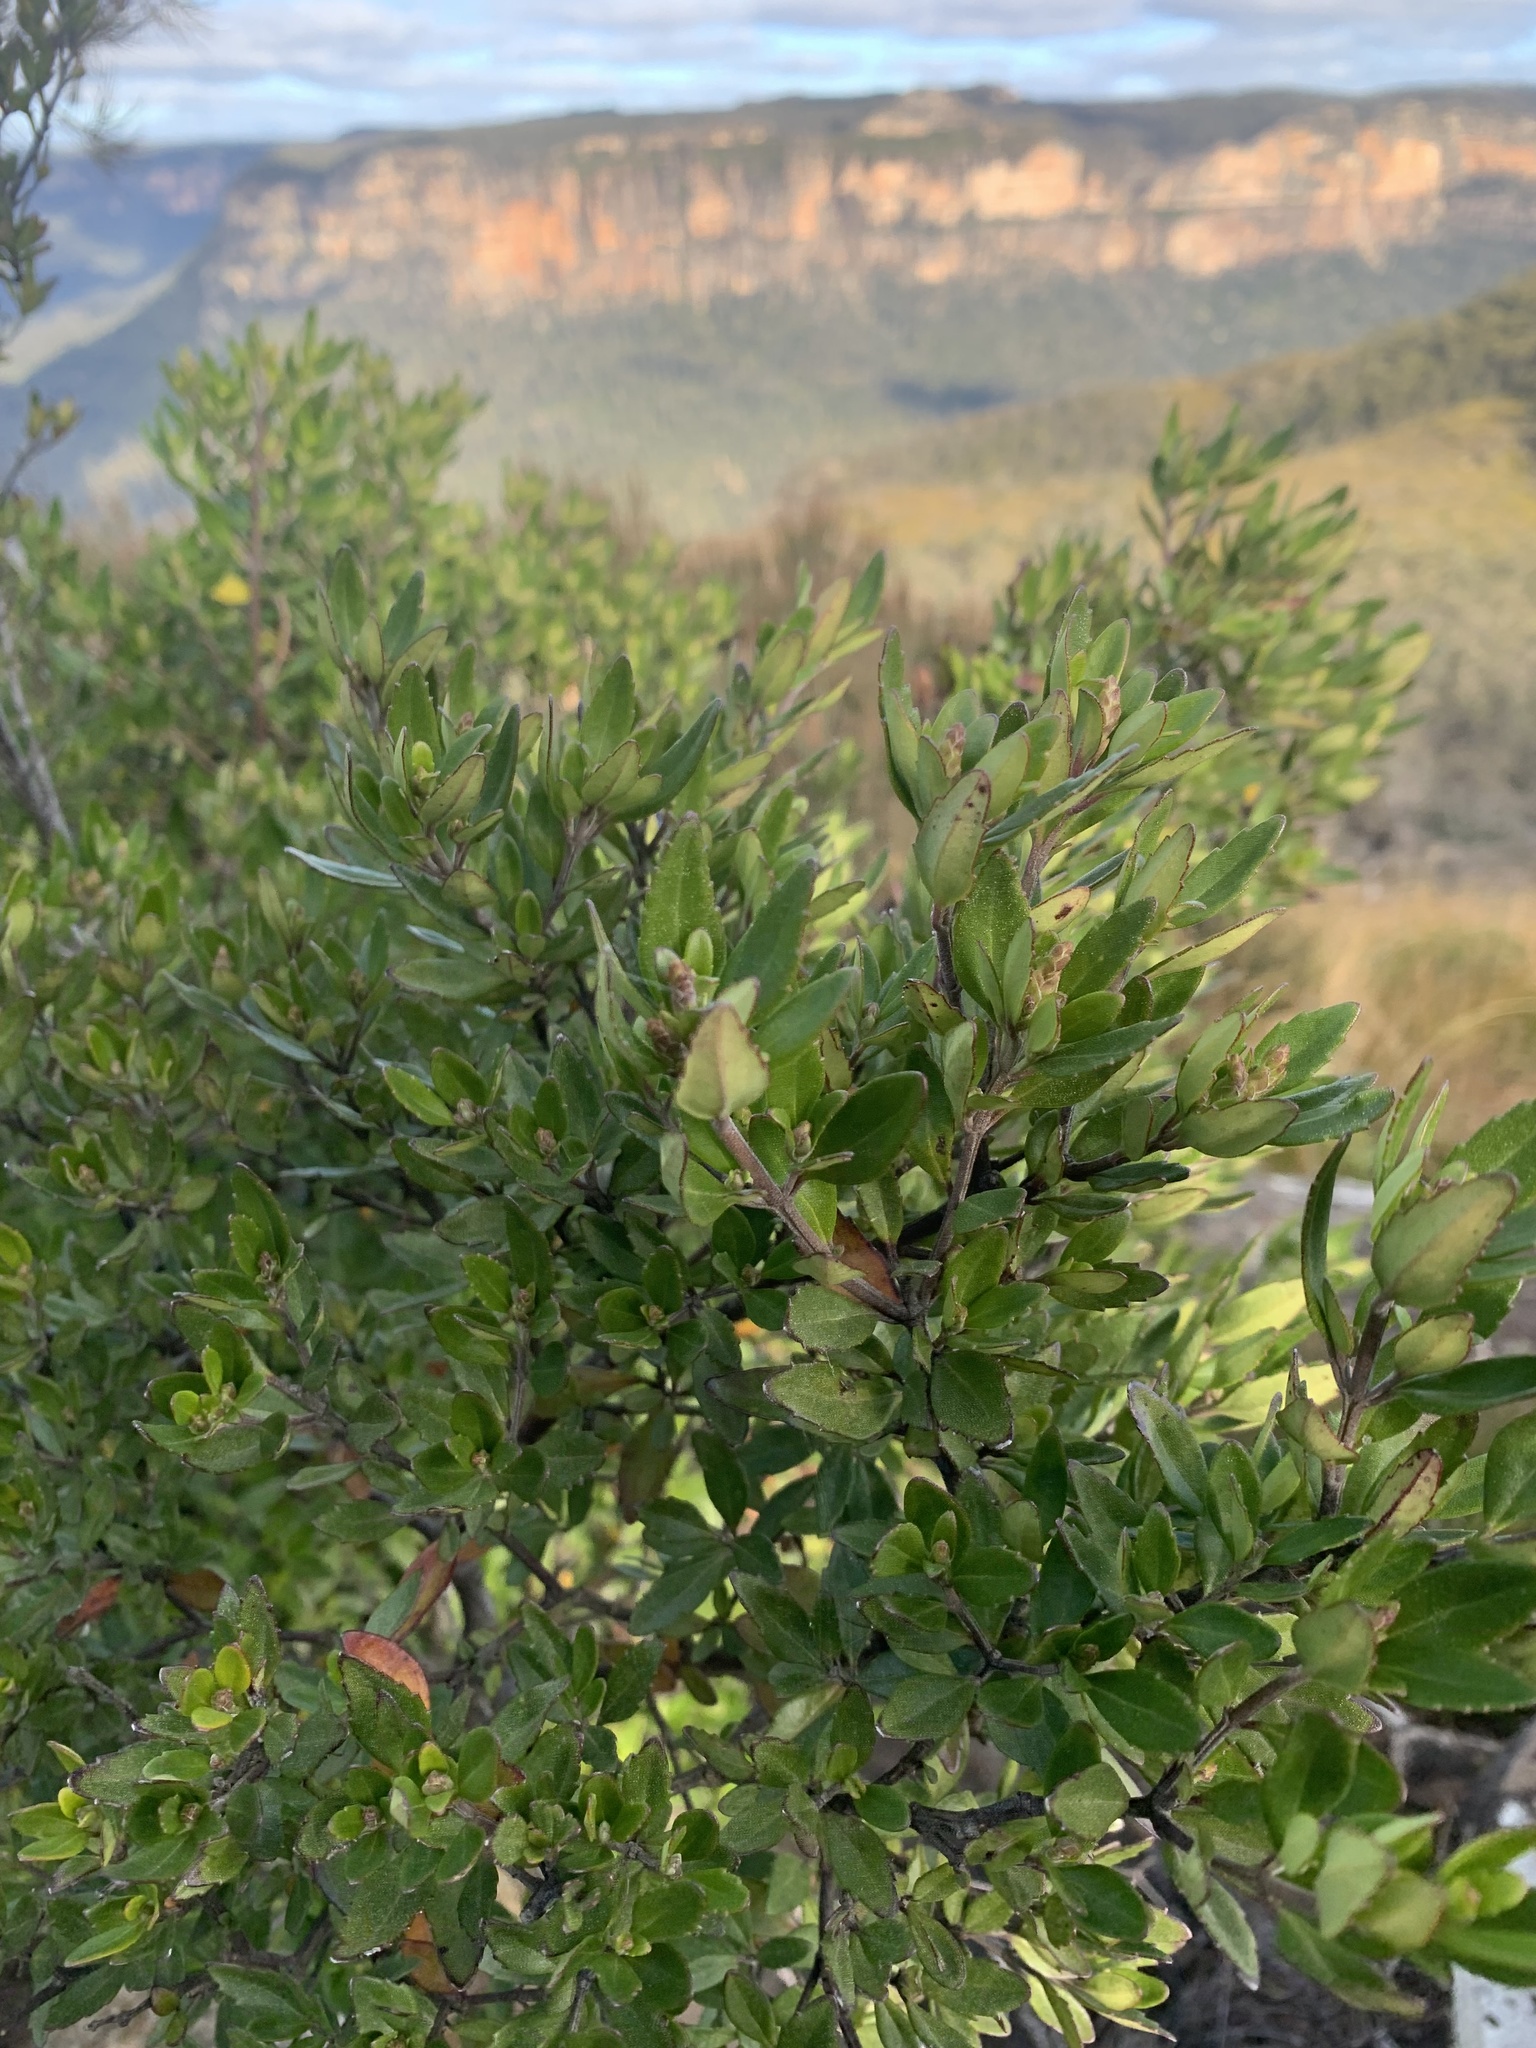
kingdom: Plantae
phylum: Tracheophyta
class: Magnoliopsida
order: Lamiales
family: Lamiaceae
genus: Prostanthera
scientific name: Prostanthera caerulea
